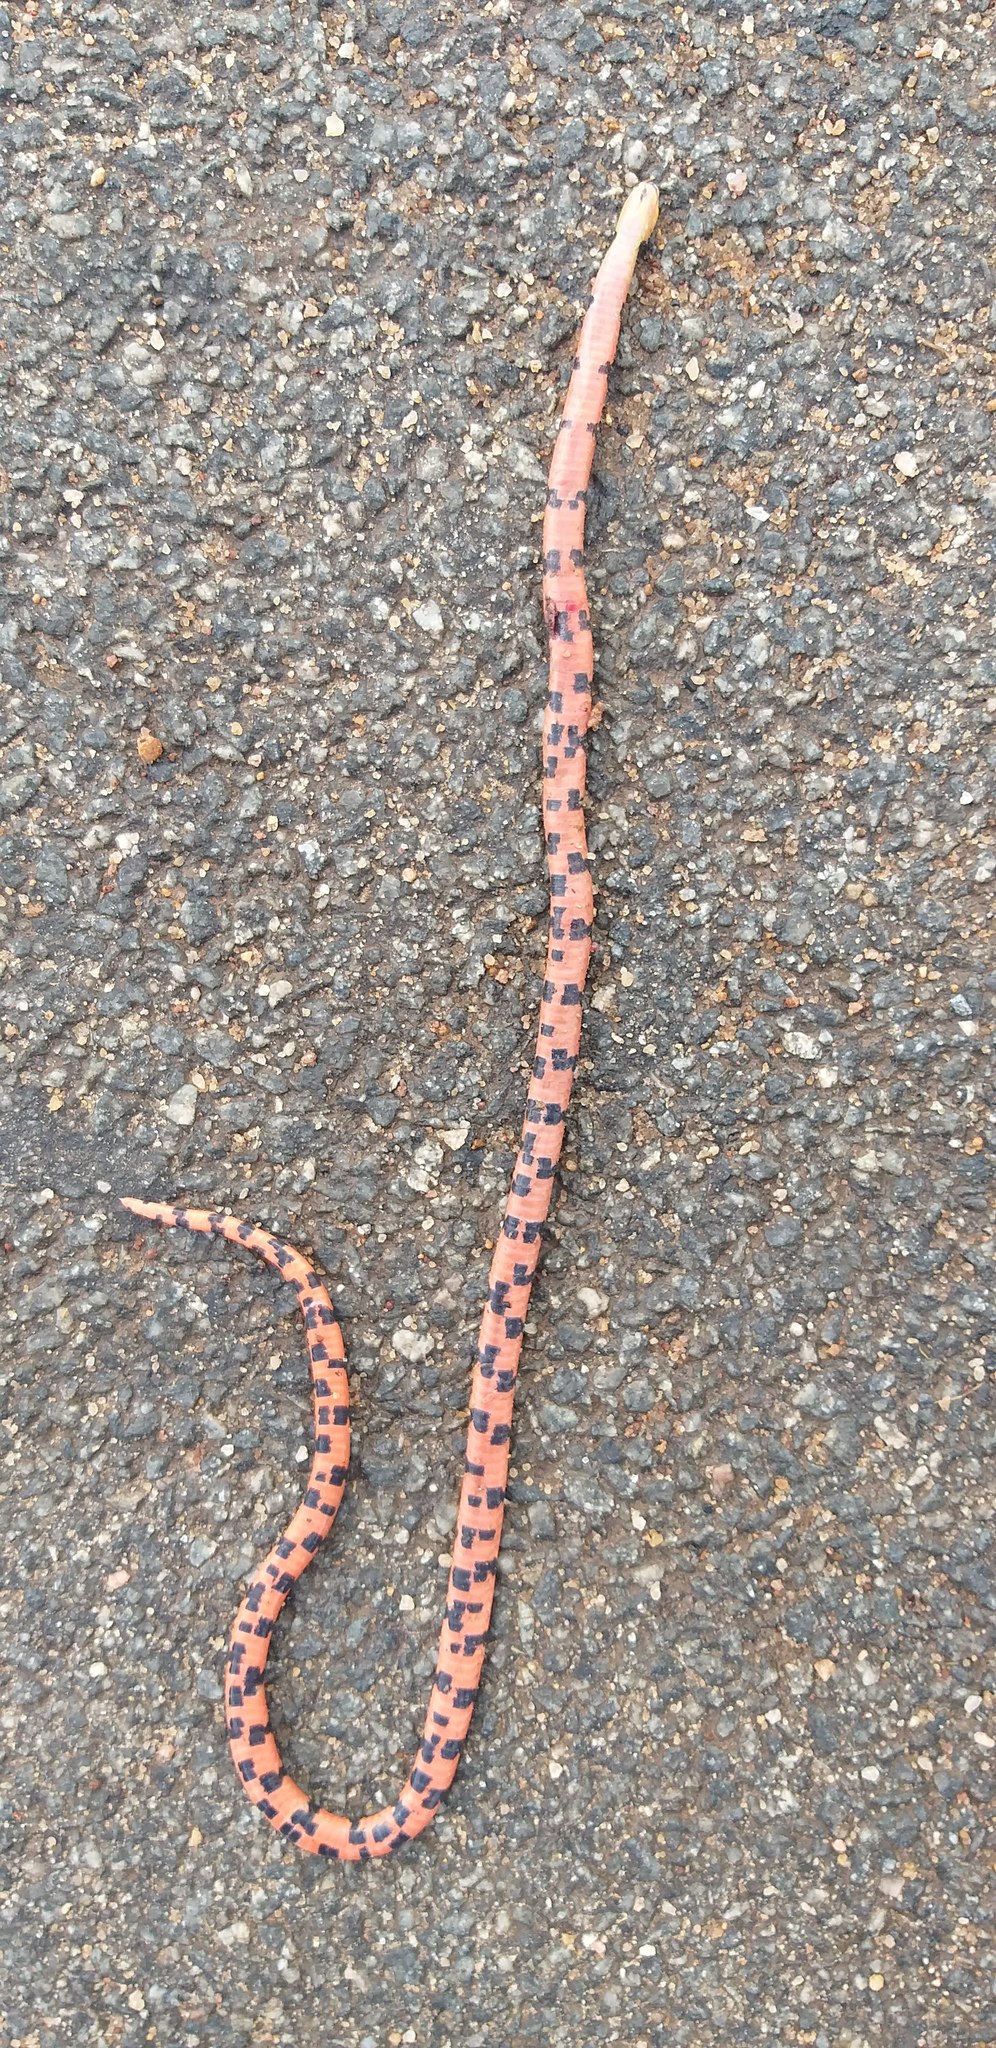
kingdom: Animalia
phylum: Chordata
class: Squamata
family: Elapidae
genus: Calliophis
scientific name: Calliophis bibroni
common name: Bibron's coral snake
